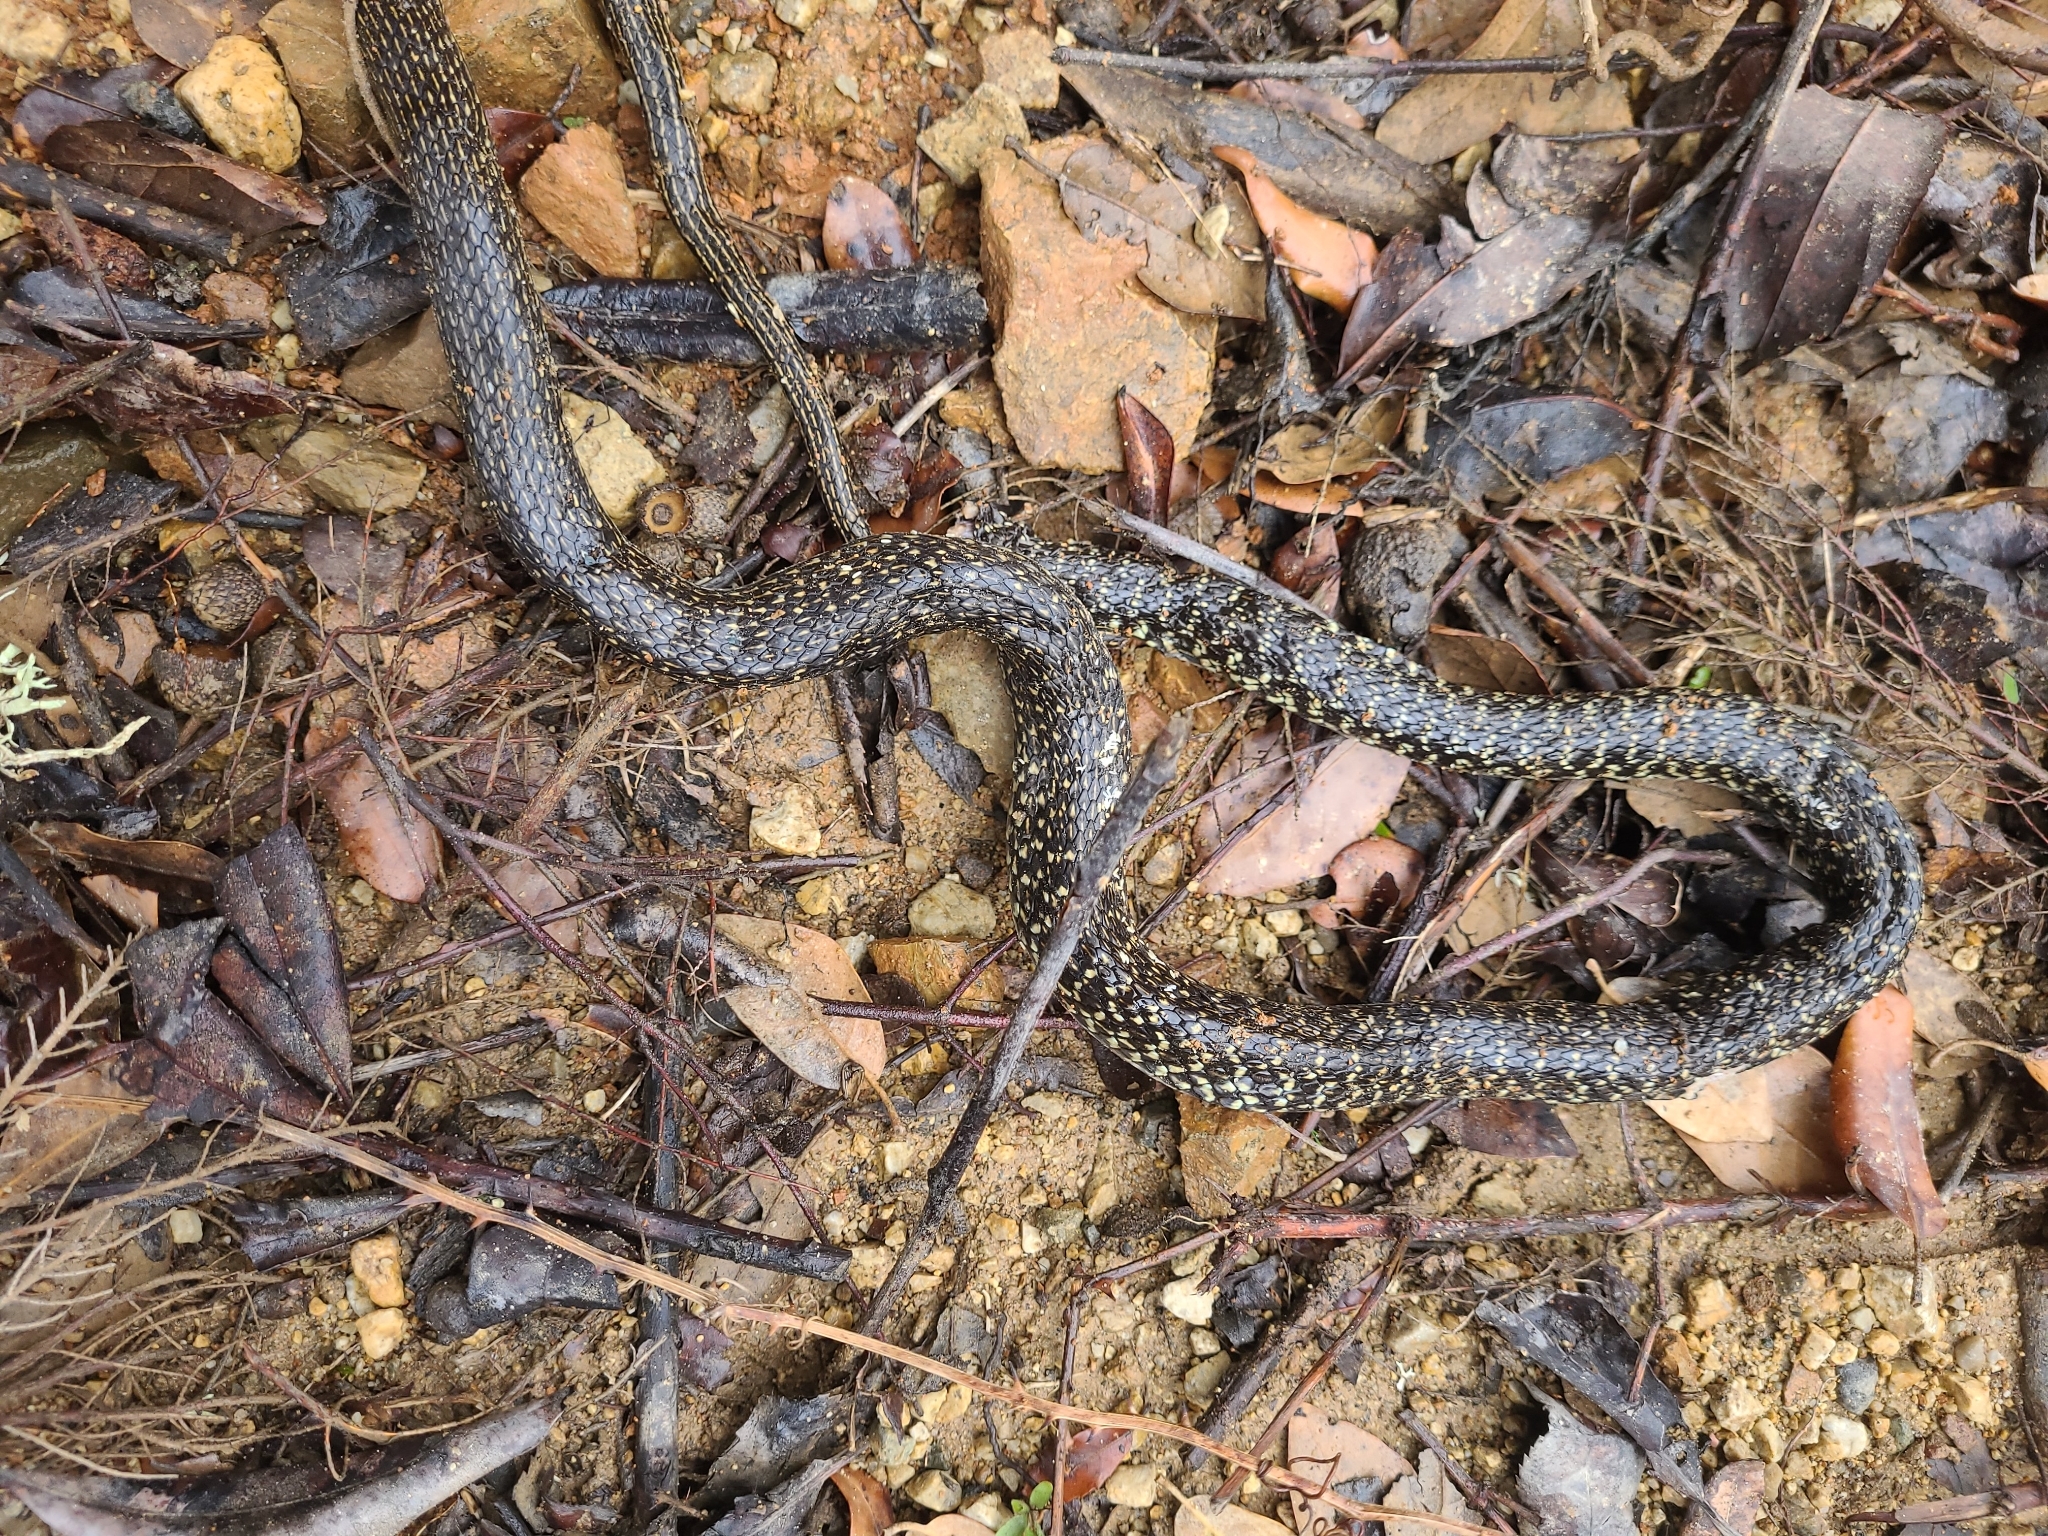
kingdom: Animalia
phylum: Chordata
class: Squamata
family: Colubridae
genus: Hierophis
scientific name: Hierophis viridiflavus
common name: Green whip snake
